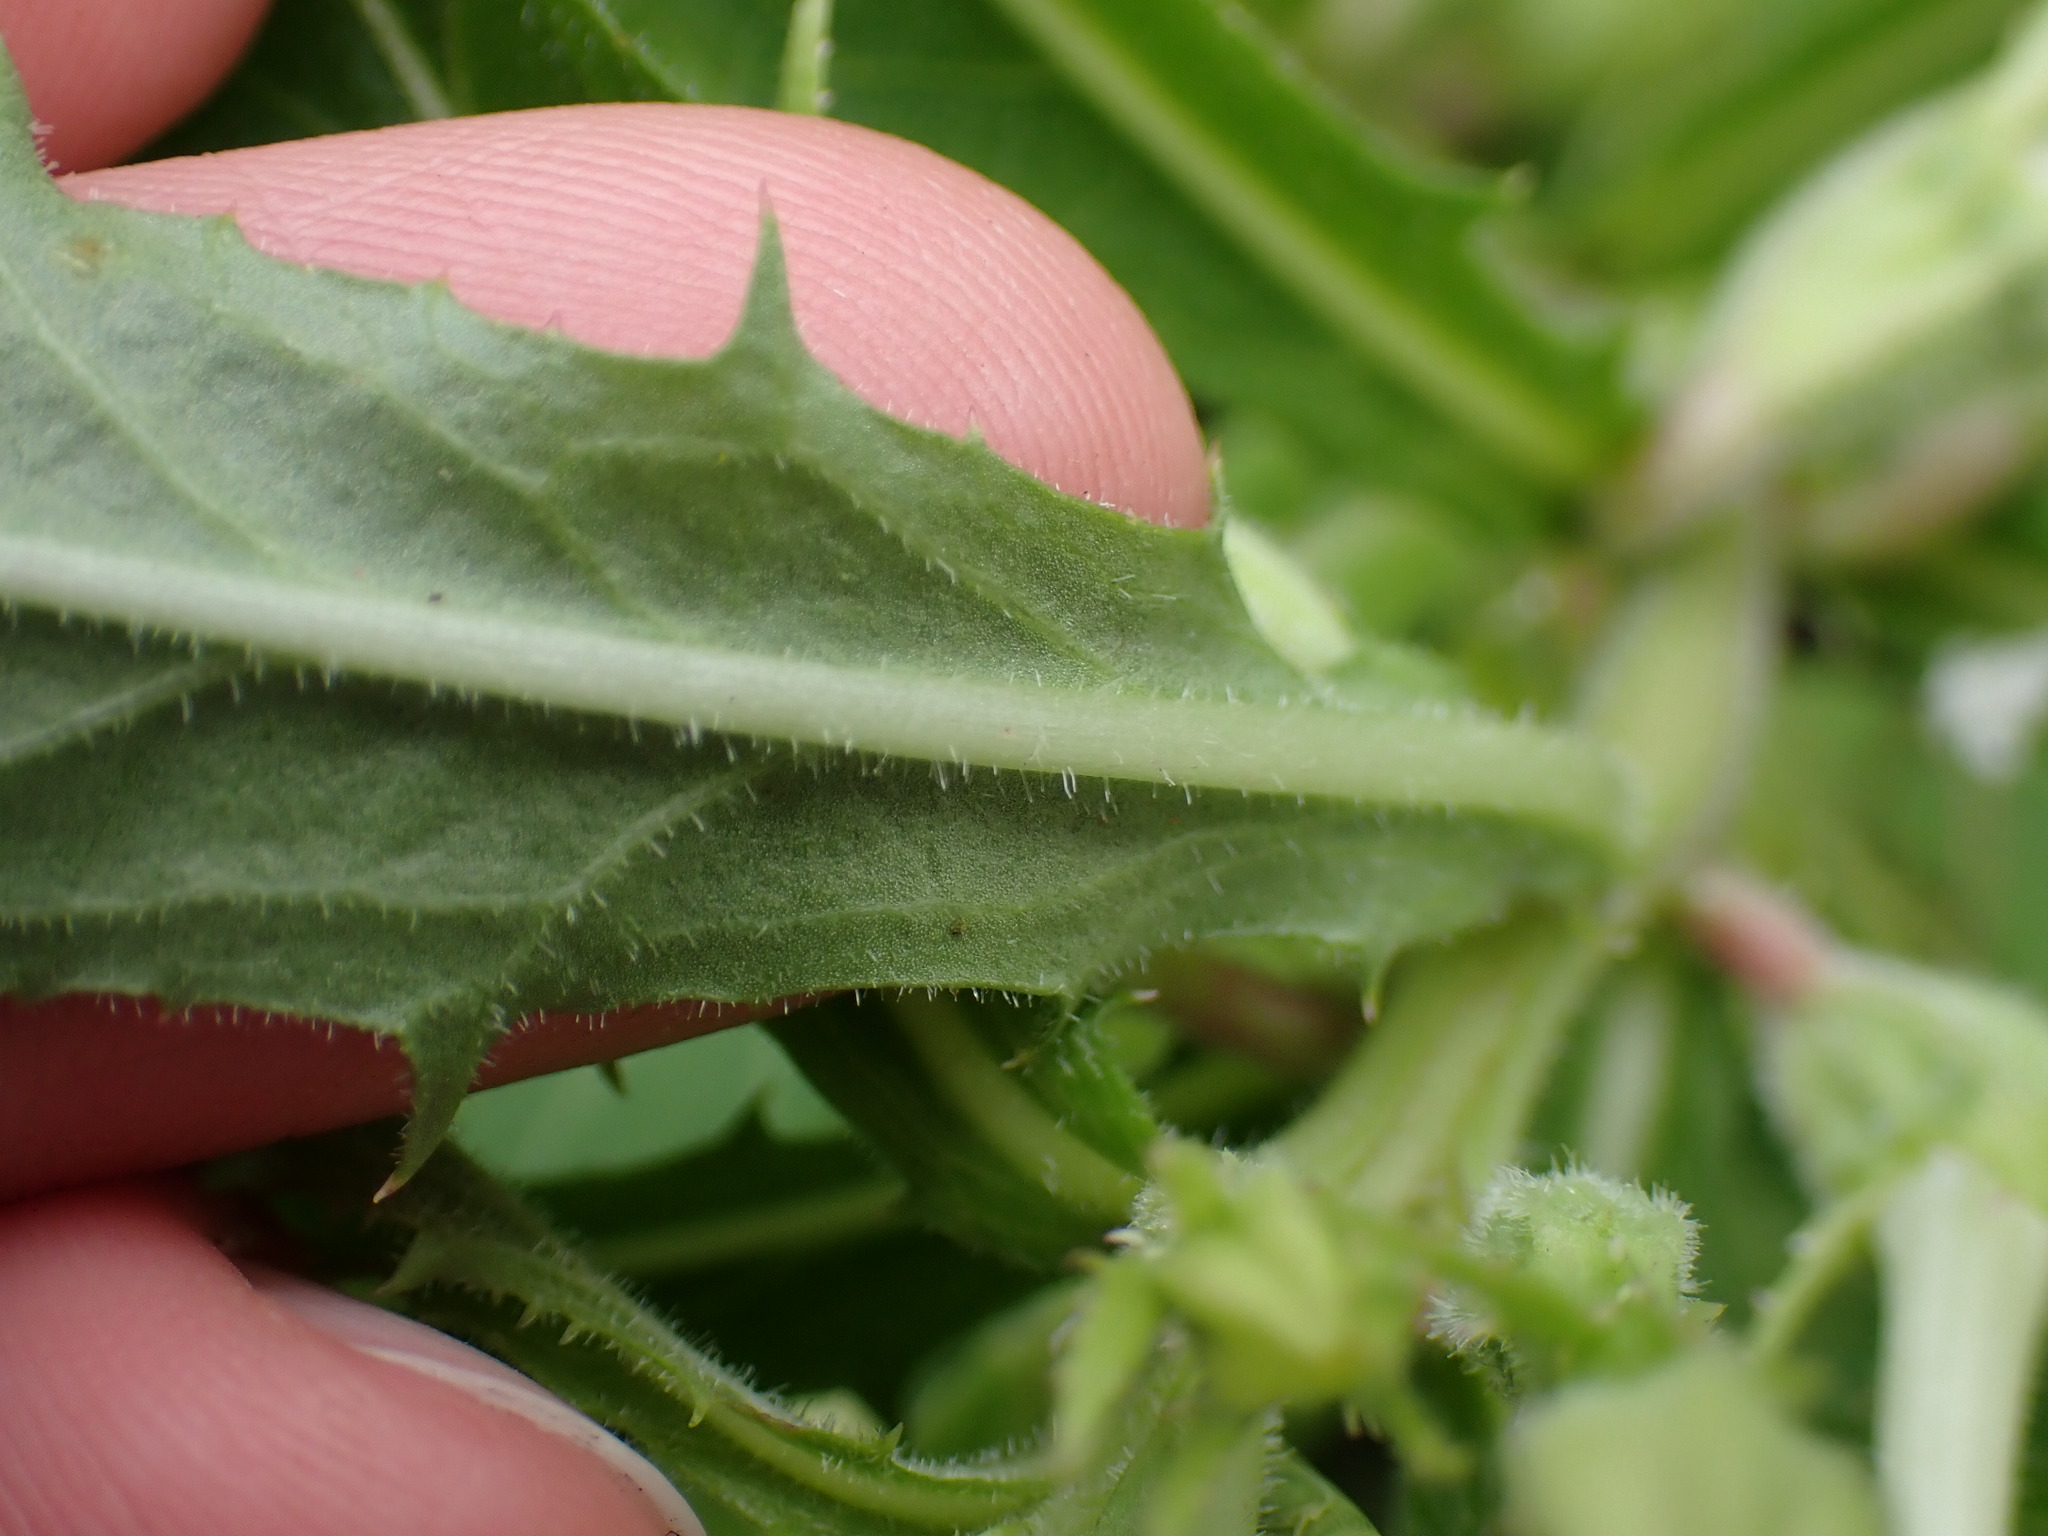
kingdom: Plantae
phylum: Tracheophyta
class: Magnoliopsida
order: Asterales
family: Campanulaceae
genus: Hippobroma
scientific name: Hippobroma longiflora
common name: Madamfate
